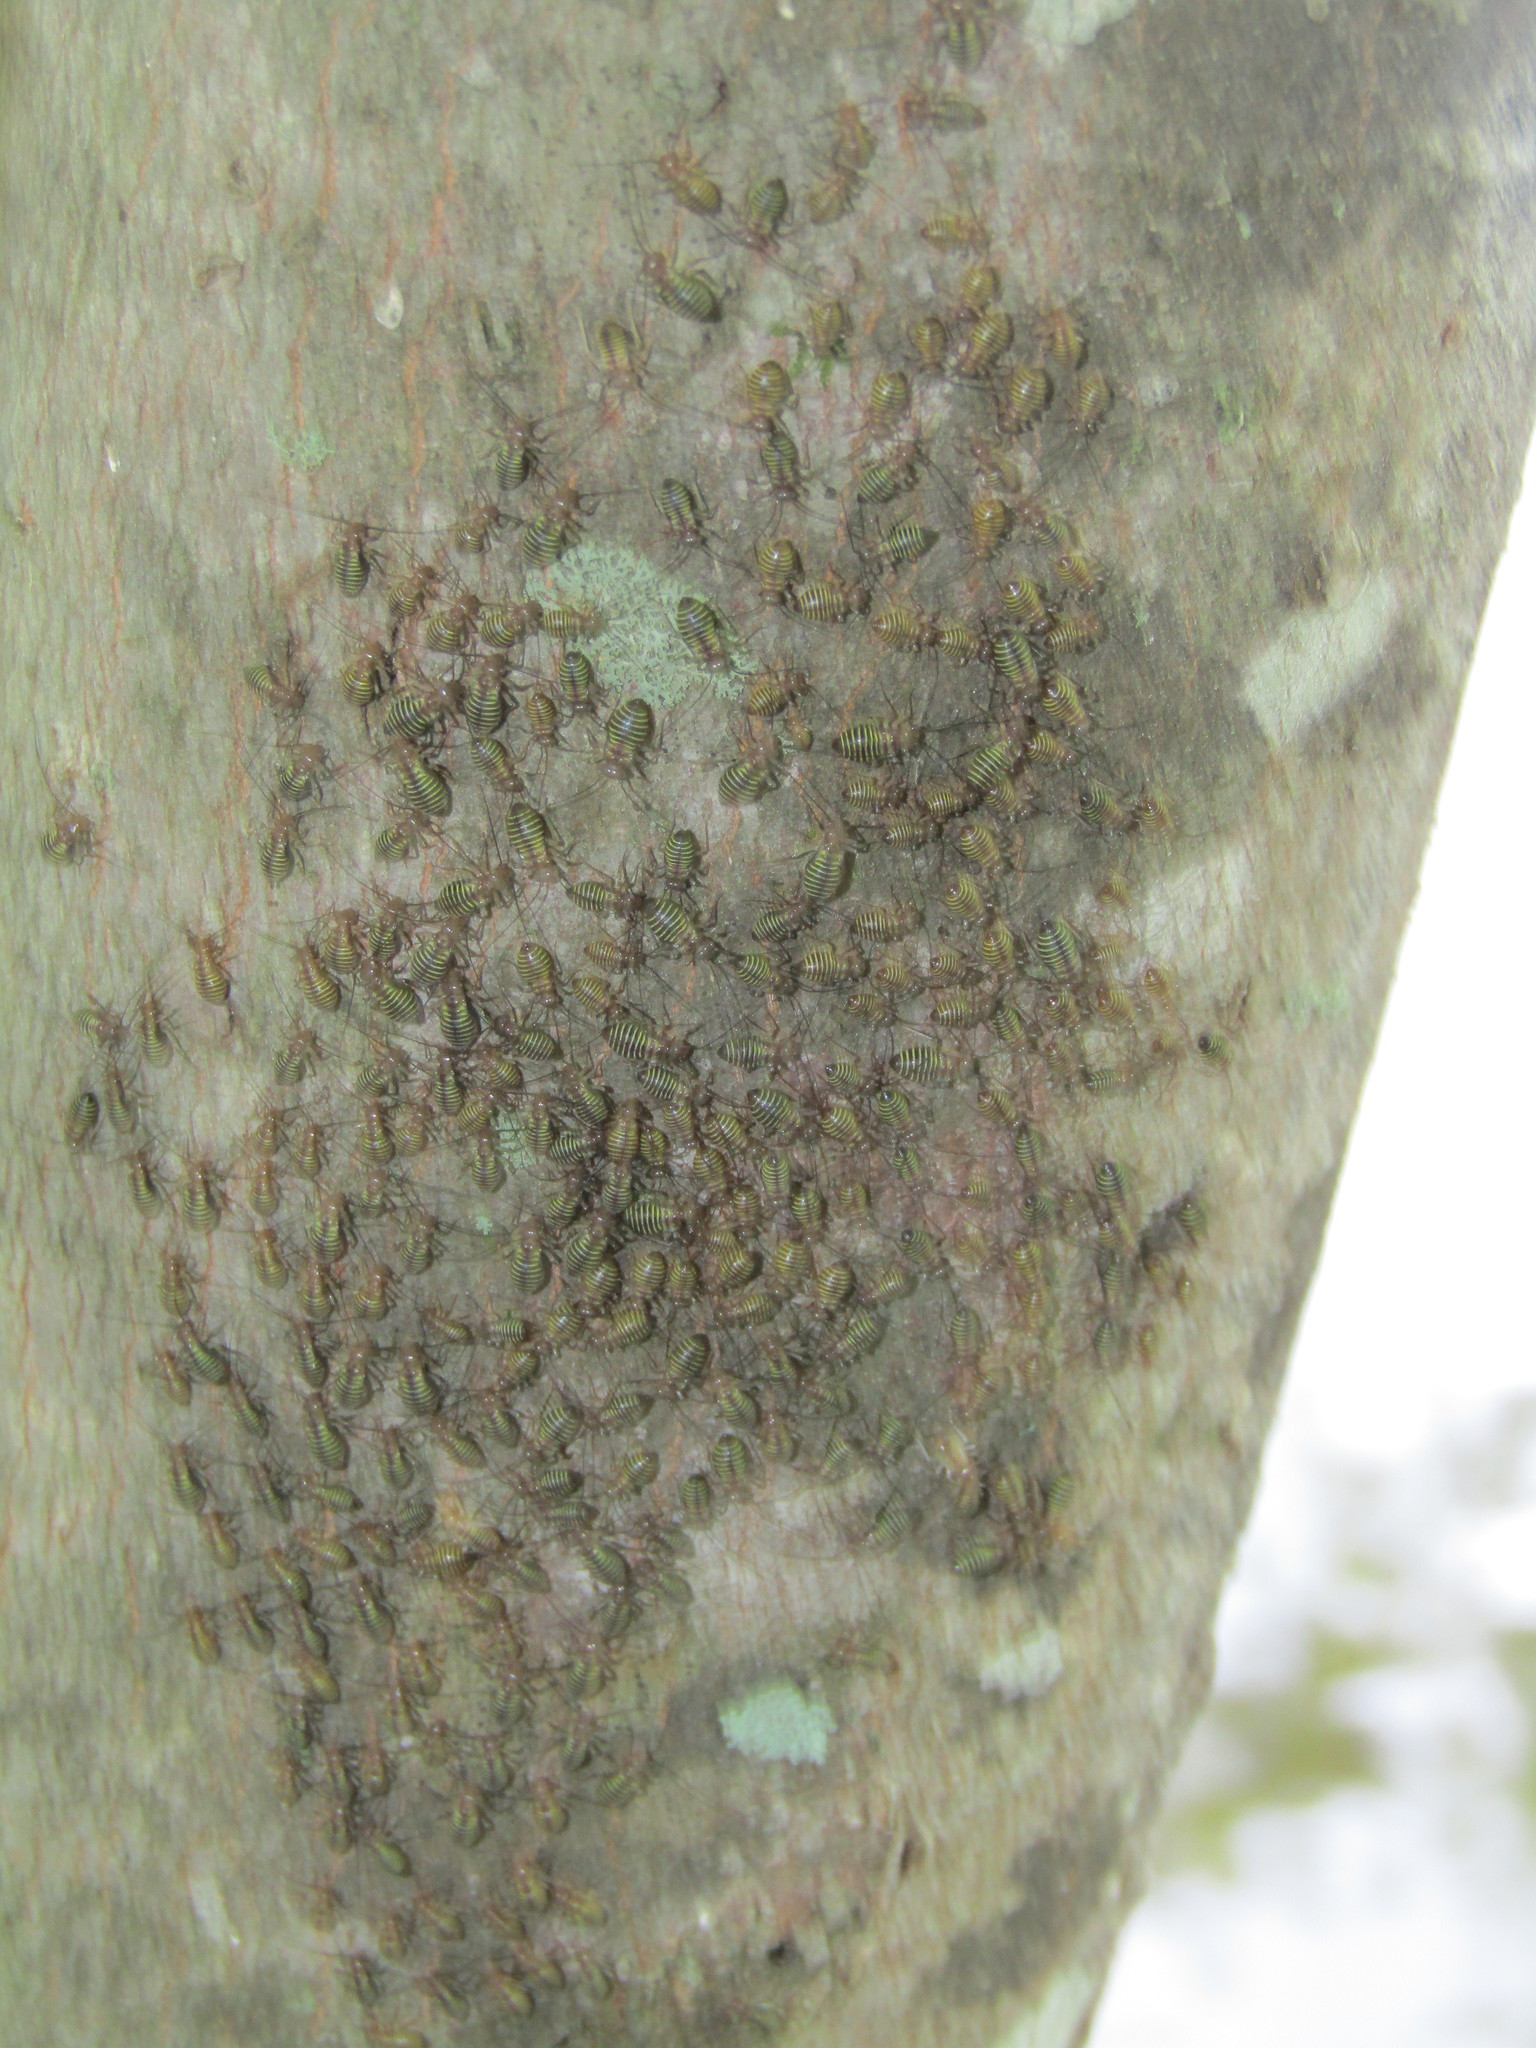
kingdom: Animalia
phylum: Arthropoda
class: Insecta
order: Psocodea
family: Psocidae
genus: Cerastipsocus
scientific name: Cerastipsocus venosus
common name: Tree cattle
